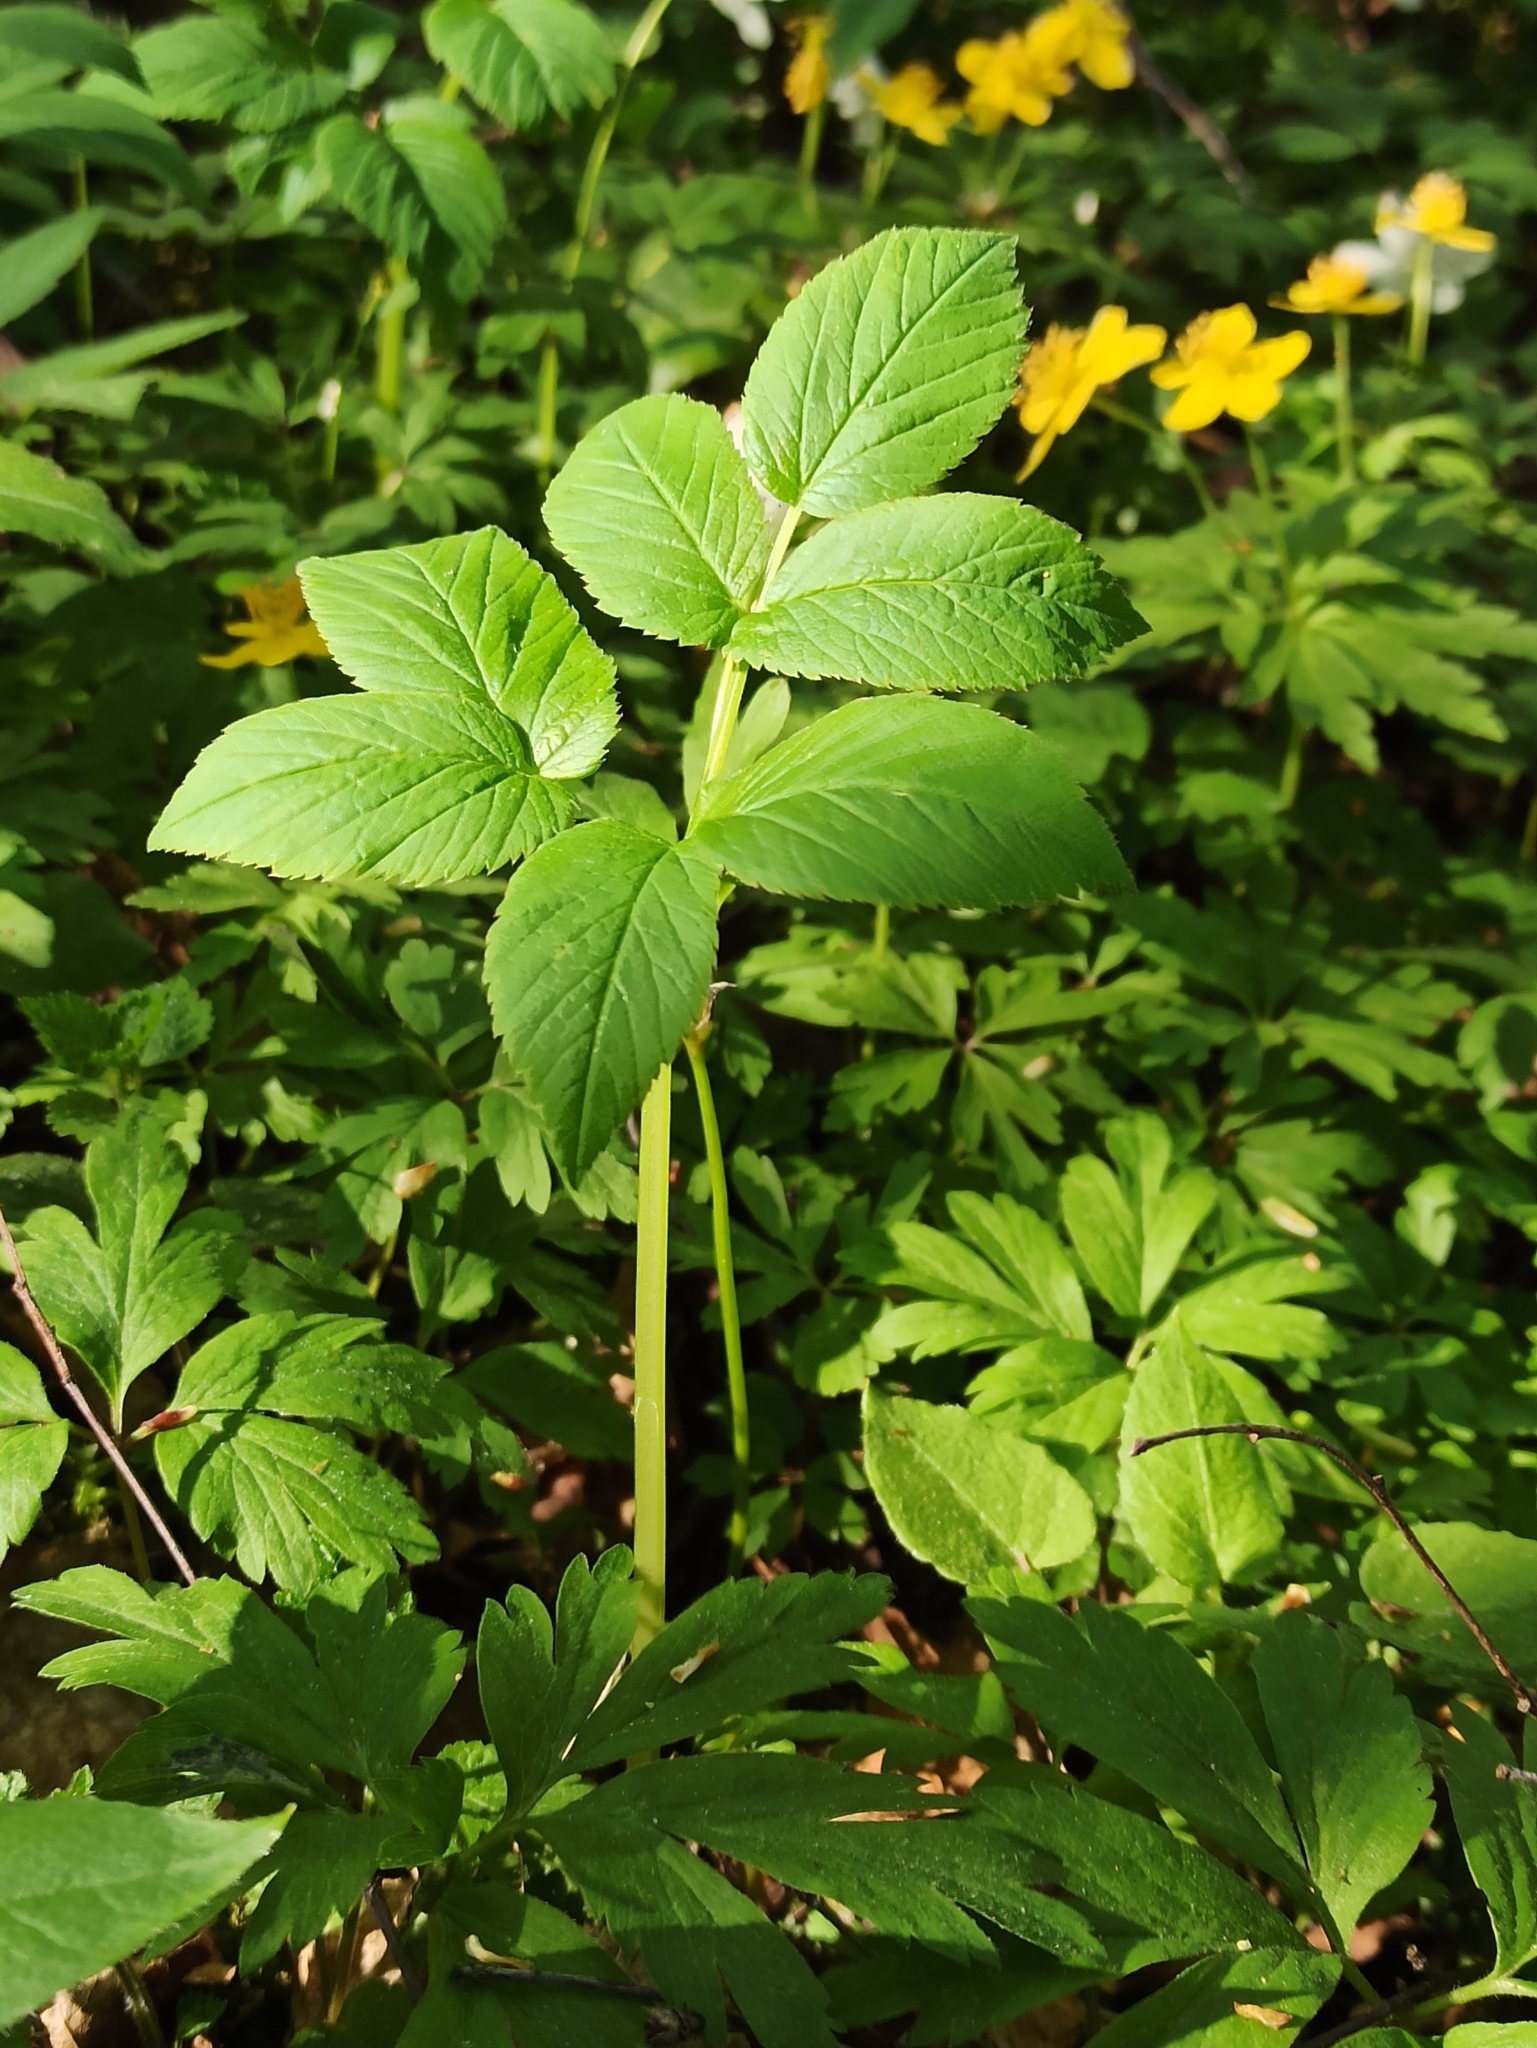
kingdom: Plantae
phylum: Tracheophyta
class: Magnoliopsida
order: Apiales
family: Apiaceae
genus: Aegopodium
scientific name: Aegopodium podagraria
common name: Ground-elder
